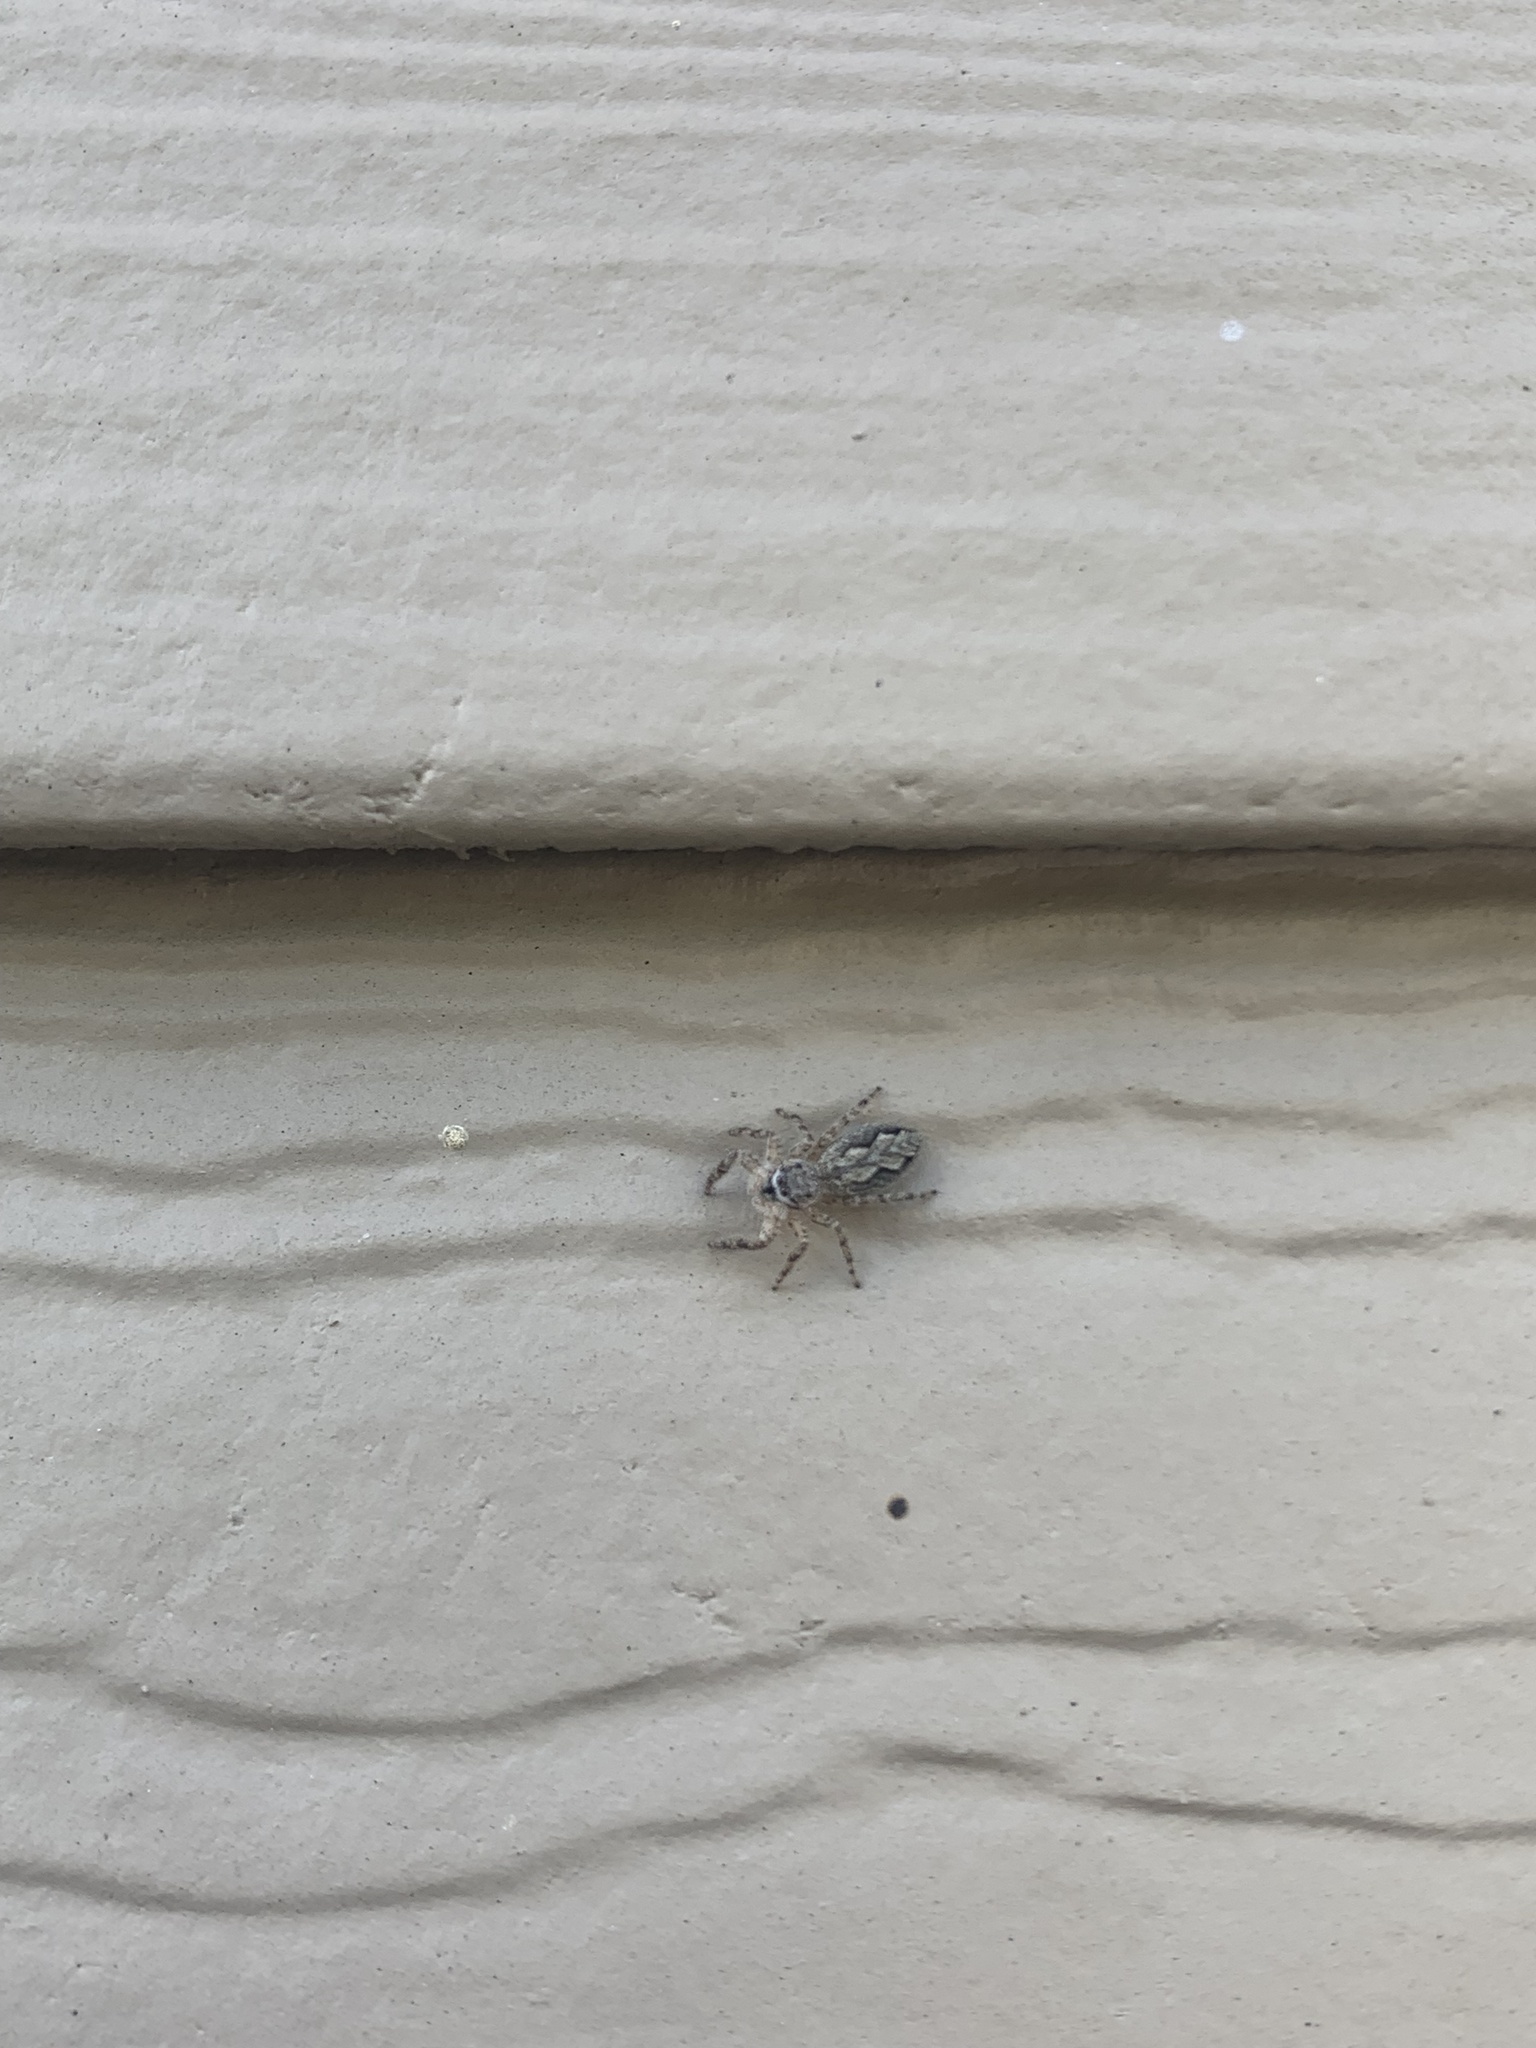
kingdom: Animalia
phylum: Arthropoda
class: Arachnida
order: Araneae
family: Salticidae
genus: Platycryptus
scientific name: Platycryptus undatus
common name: Tan jumping spider
